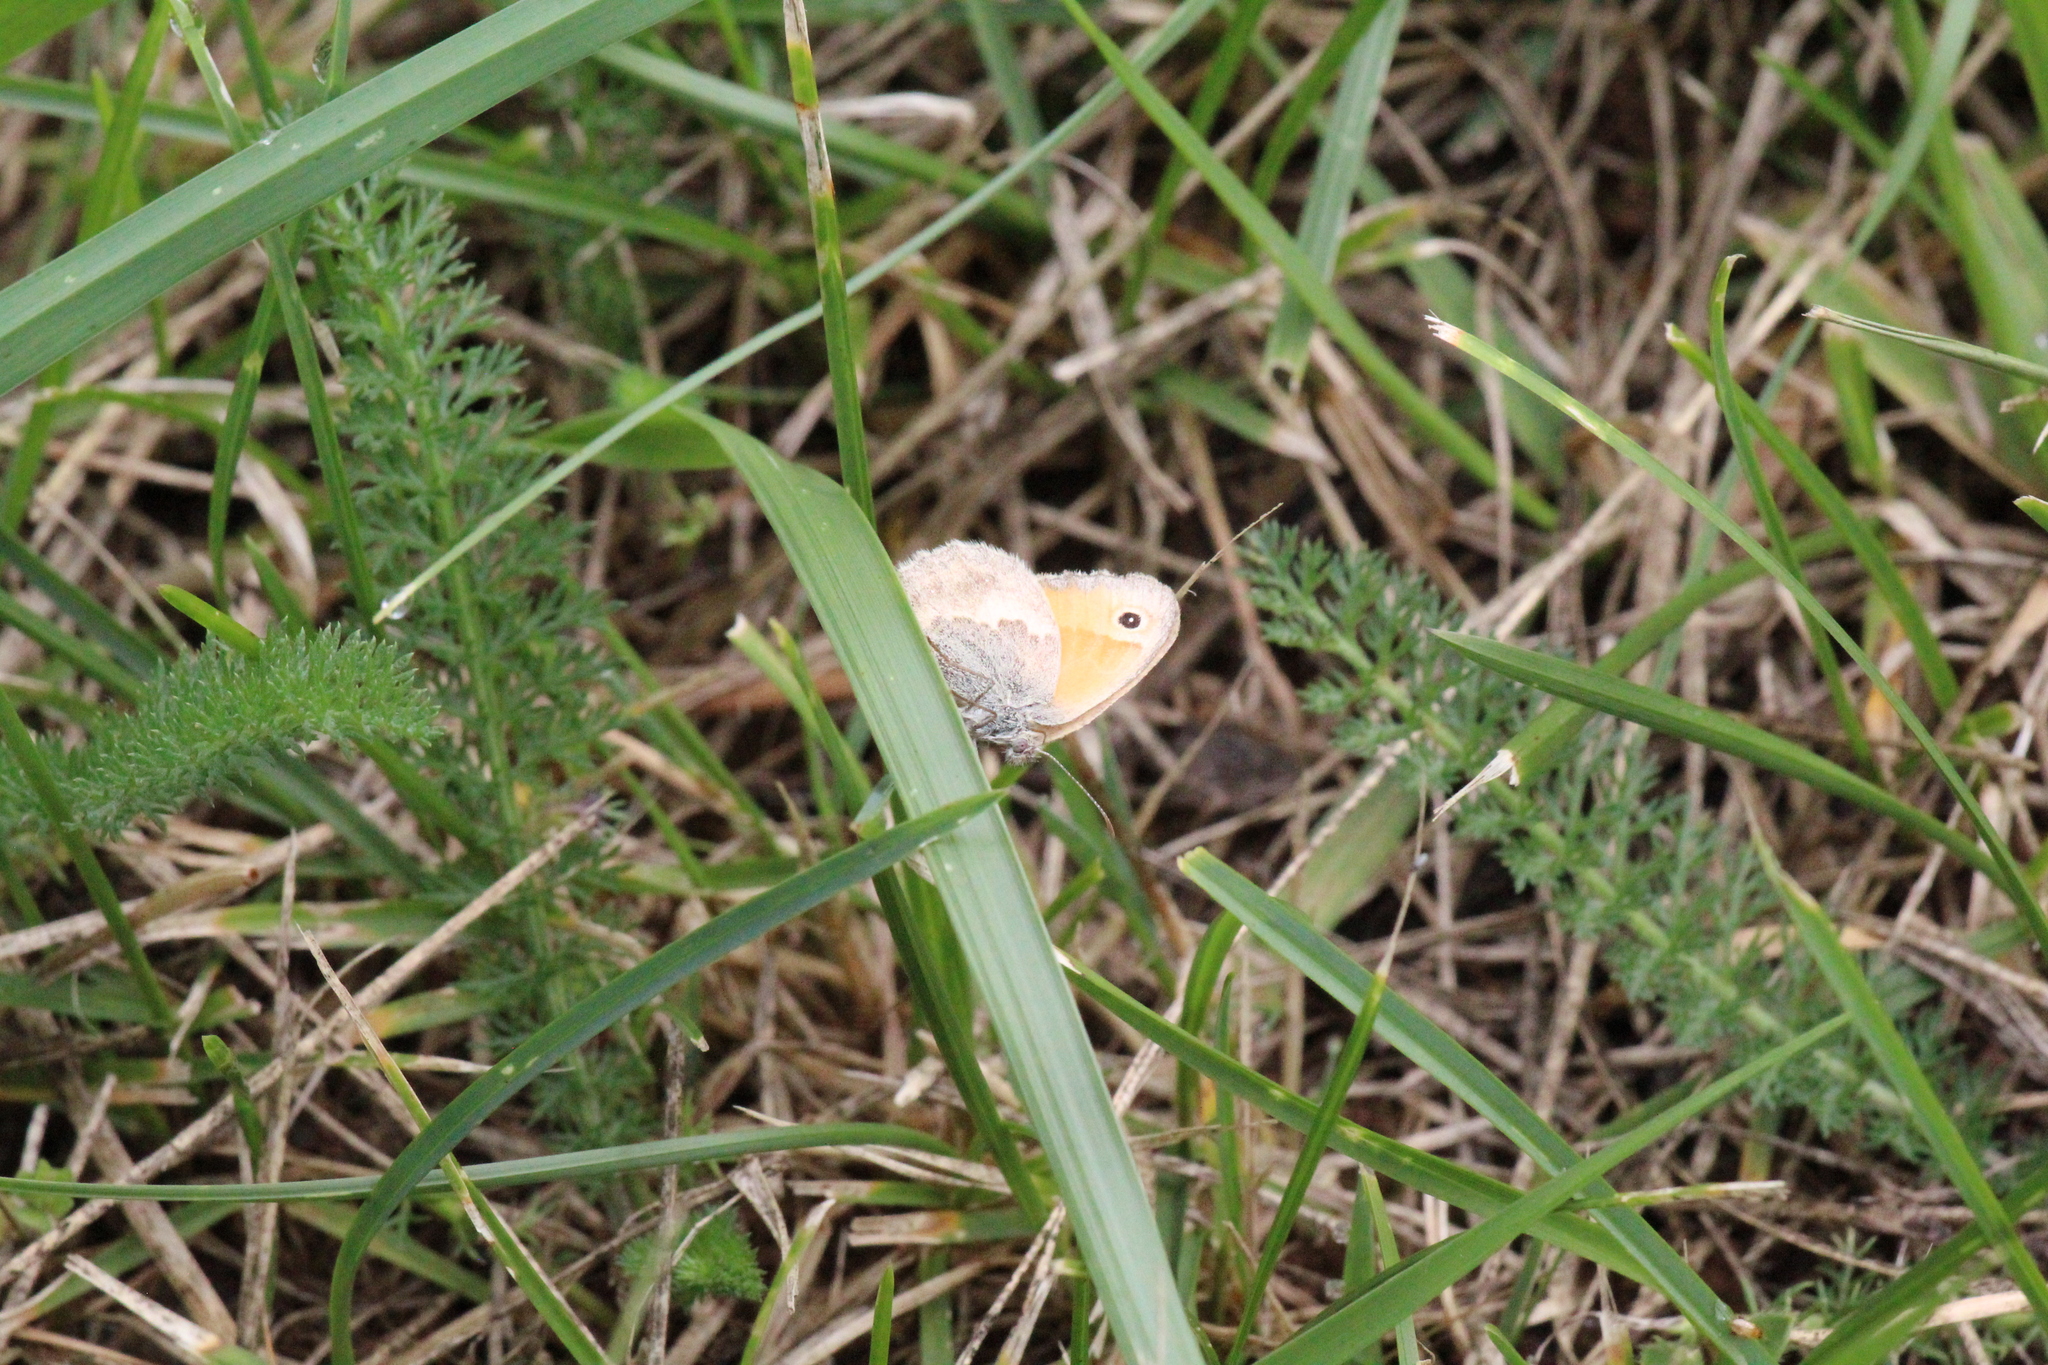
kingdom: Animalia
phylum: Arthropoda
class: Insecta
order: Lepidoptera
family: Nymphalidae
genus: Coenonympha
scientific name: Coenonympha pamphilus
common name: Small heath
